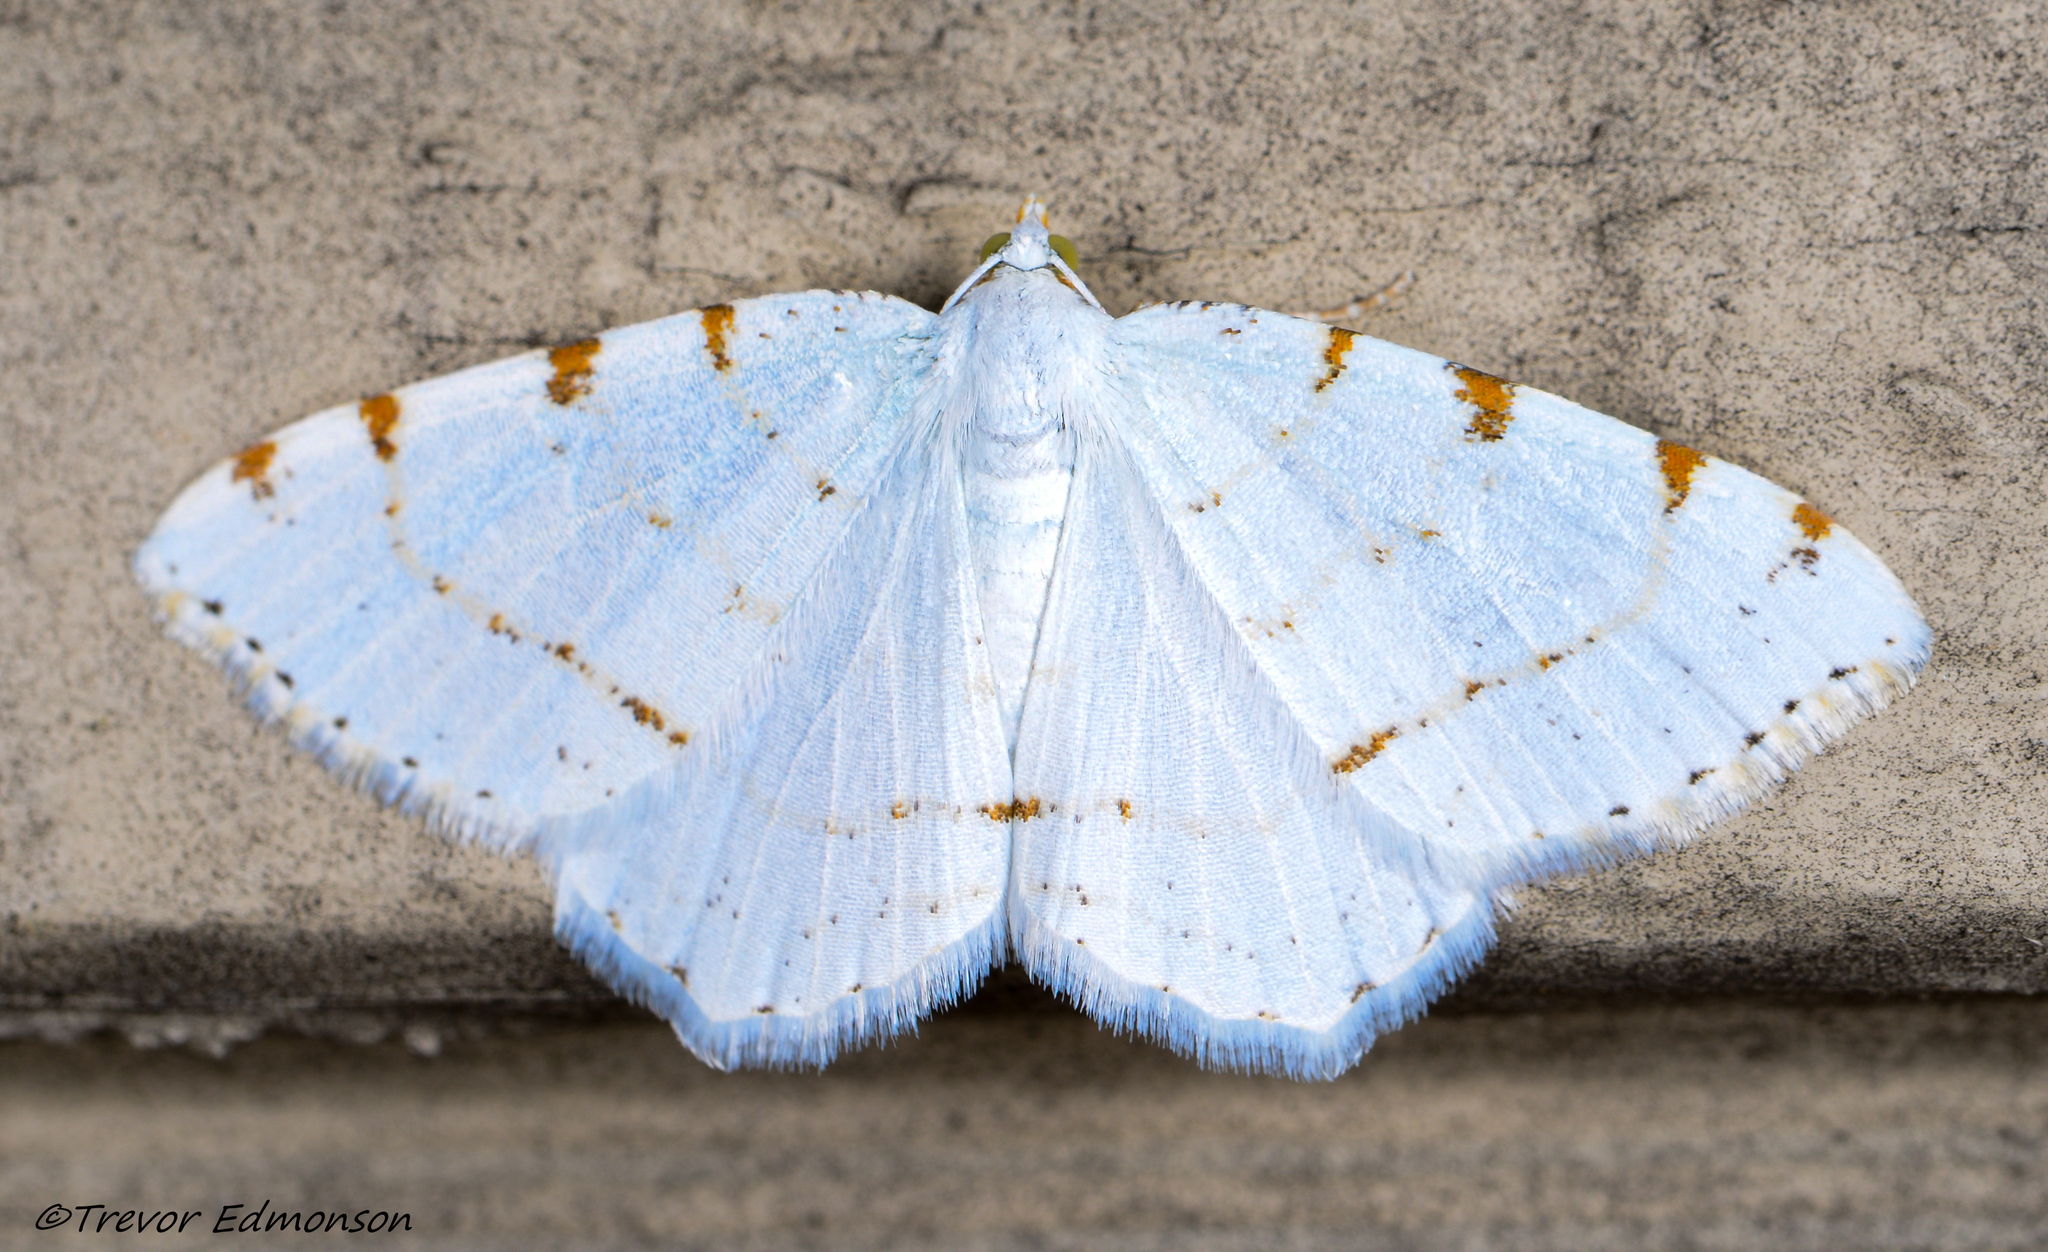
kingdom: Animalia
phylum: Arthropoda
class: Insecta
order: Lepidoptera
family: Geometridae
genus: Macaria
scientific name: Macaria pustularia
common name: Lesser maple spanworm moth
